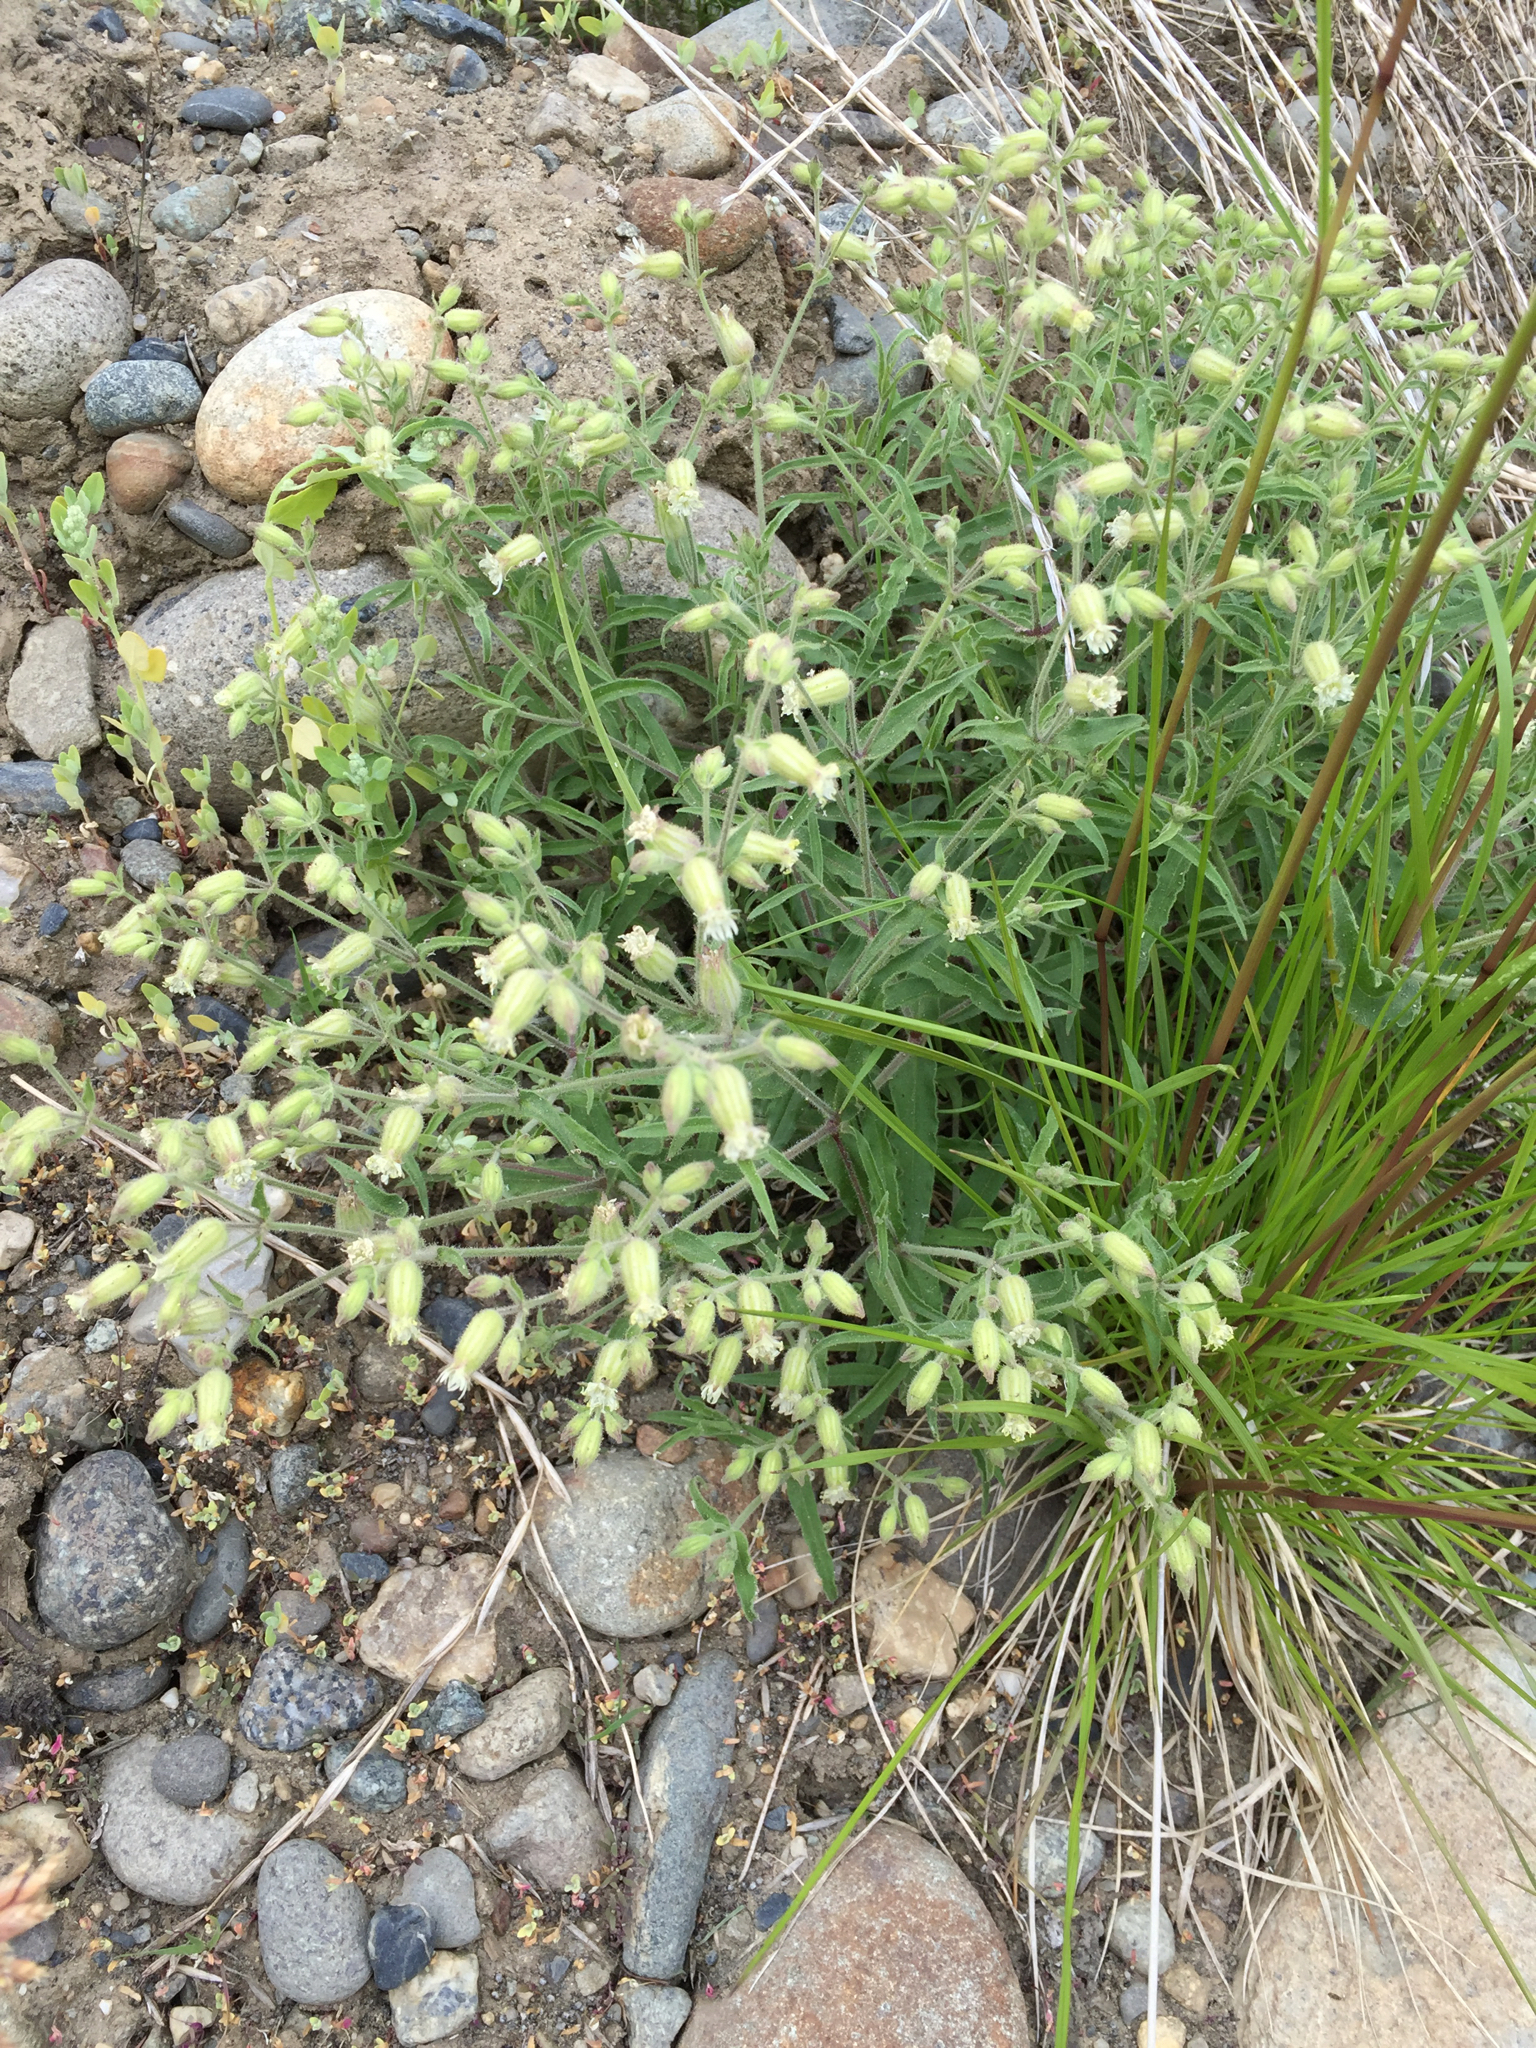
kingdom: Plantae
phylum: Tracheophyta
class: Magnoliopsida
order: Caryophyllales
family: Caryophyllaceae
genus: Silene
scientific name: Silene williamsii
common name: Williams' campion
